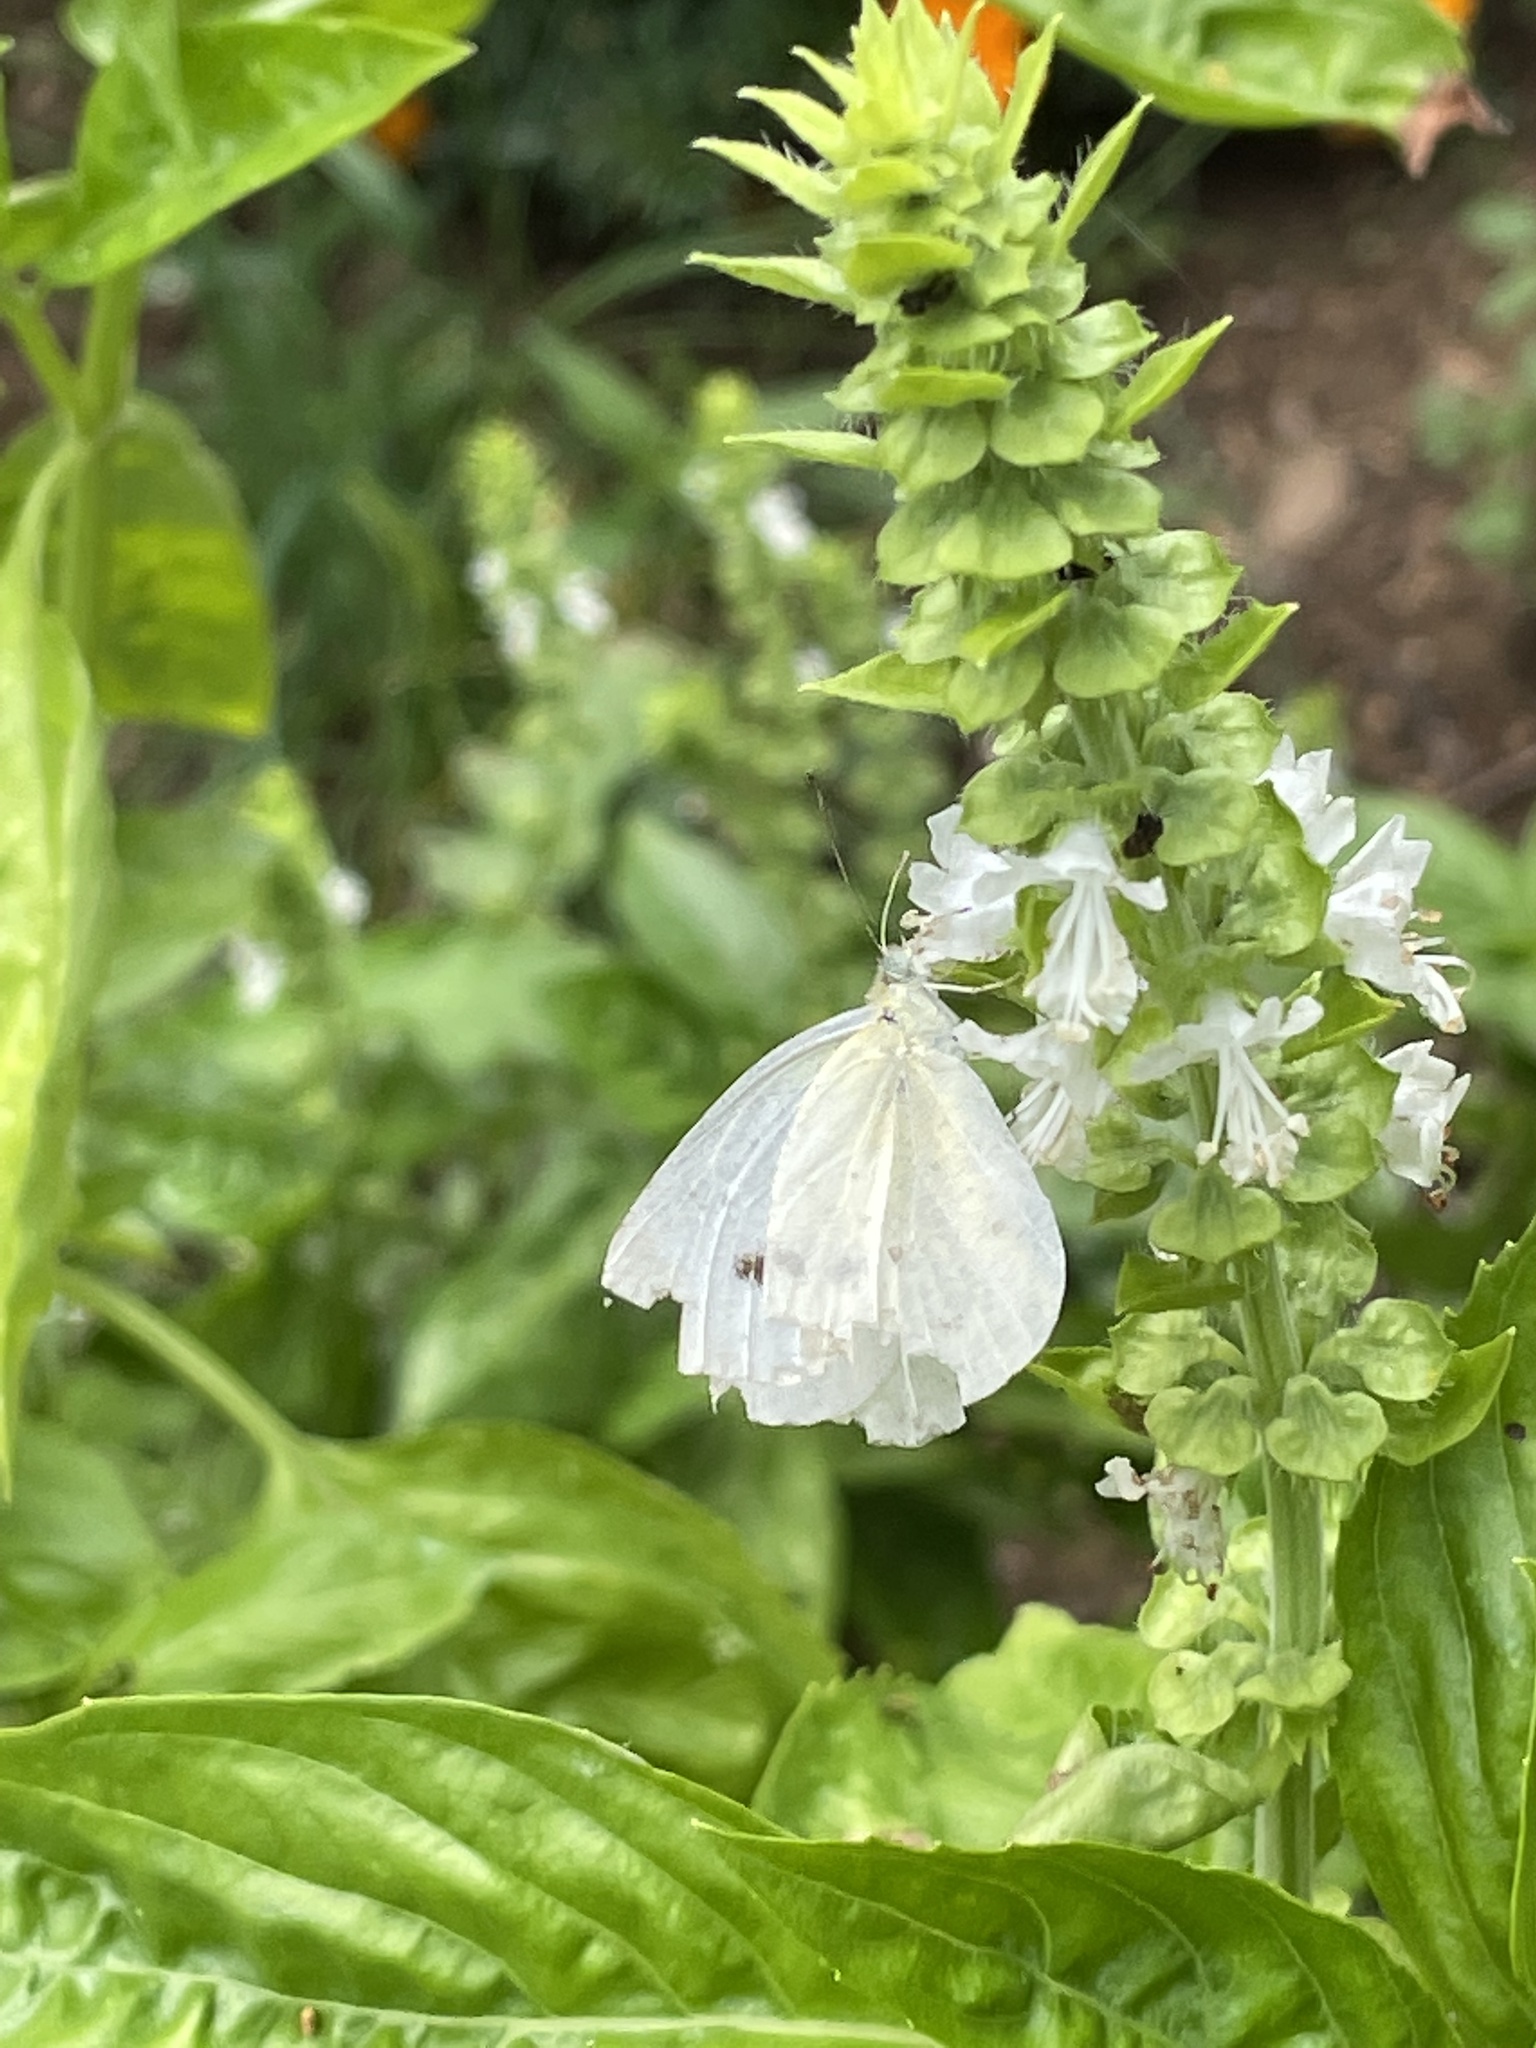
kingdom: Animalia
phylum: Arthropoda
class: Insecta
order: Lepidoptera
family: Pieridae
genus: Pieris
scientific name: Pieris rapae
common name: Small white
